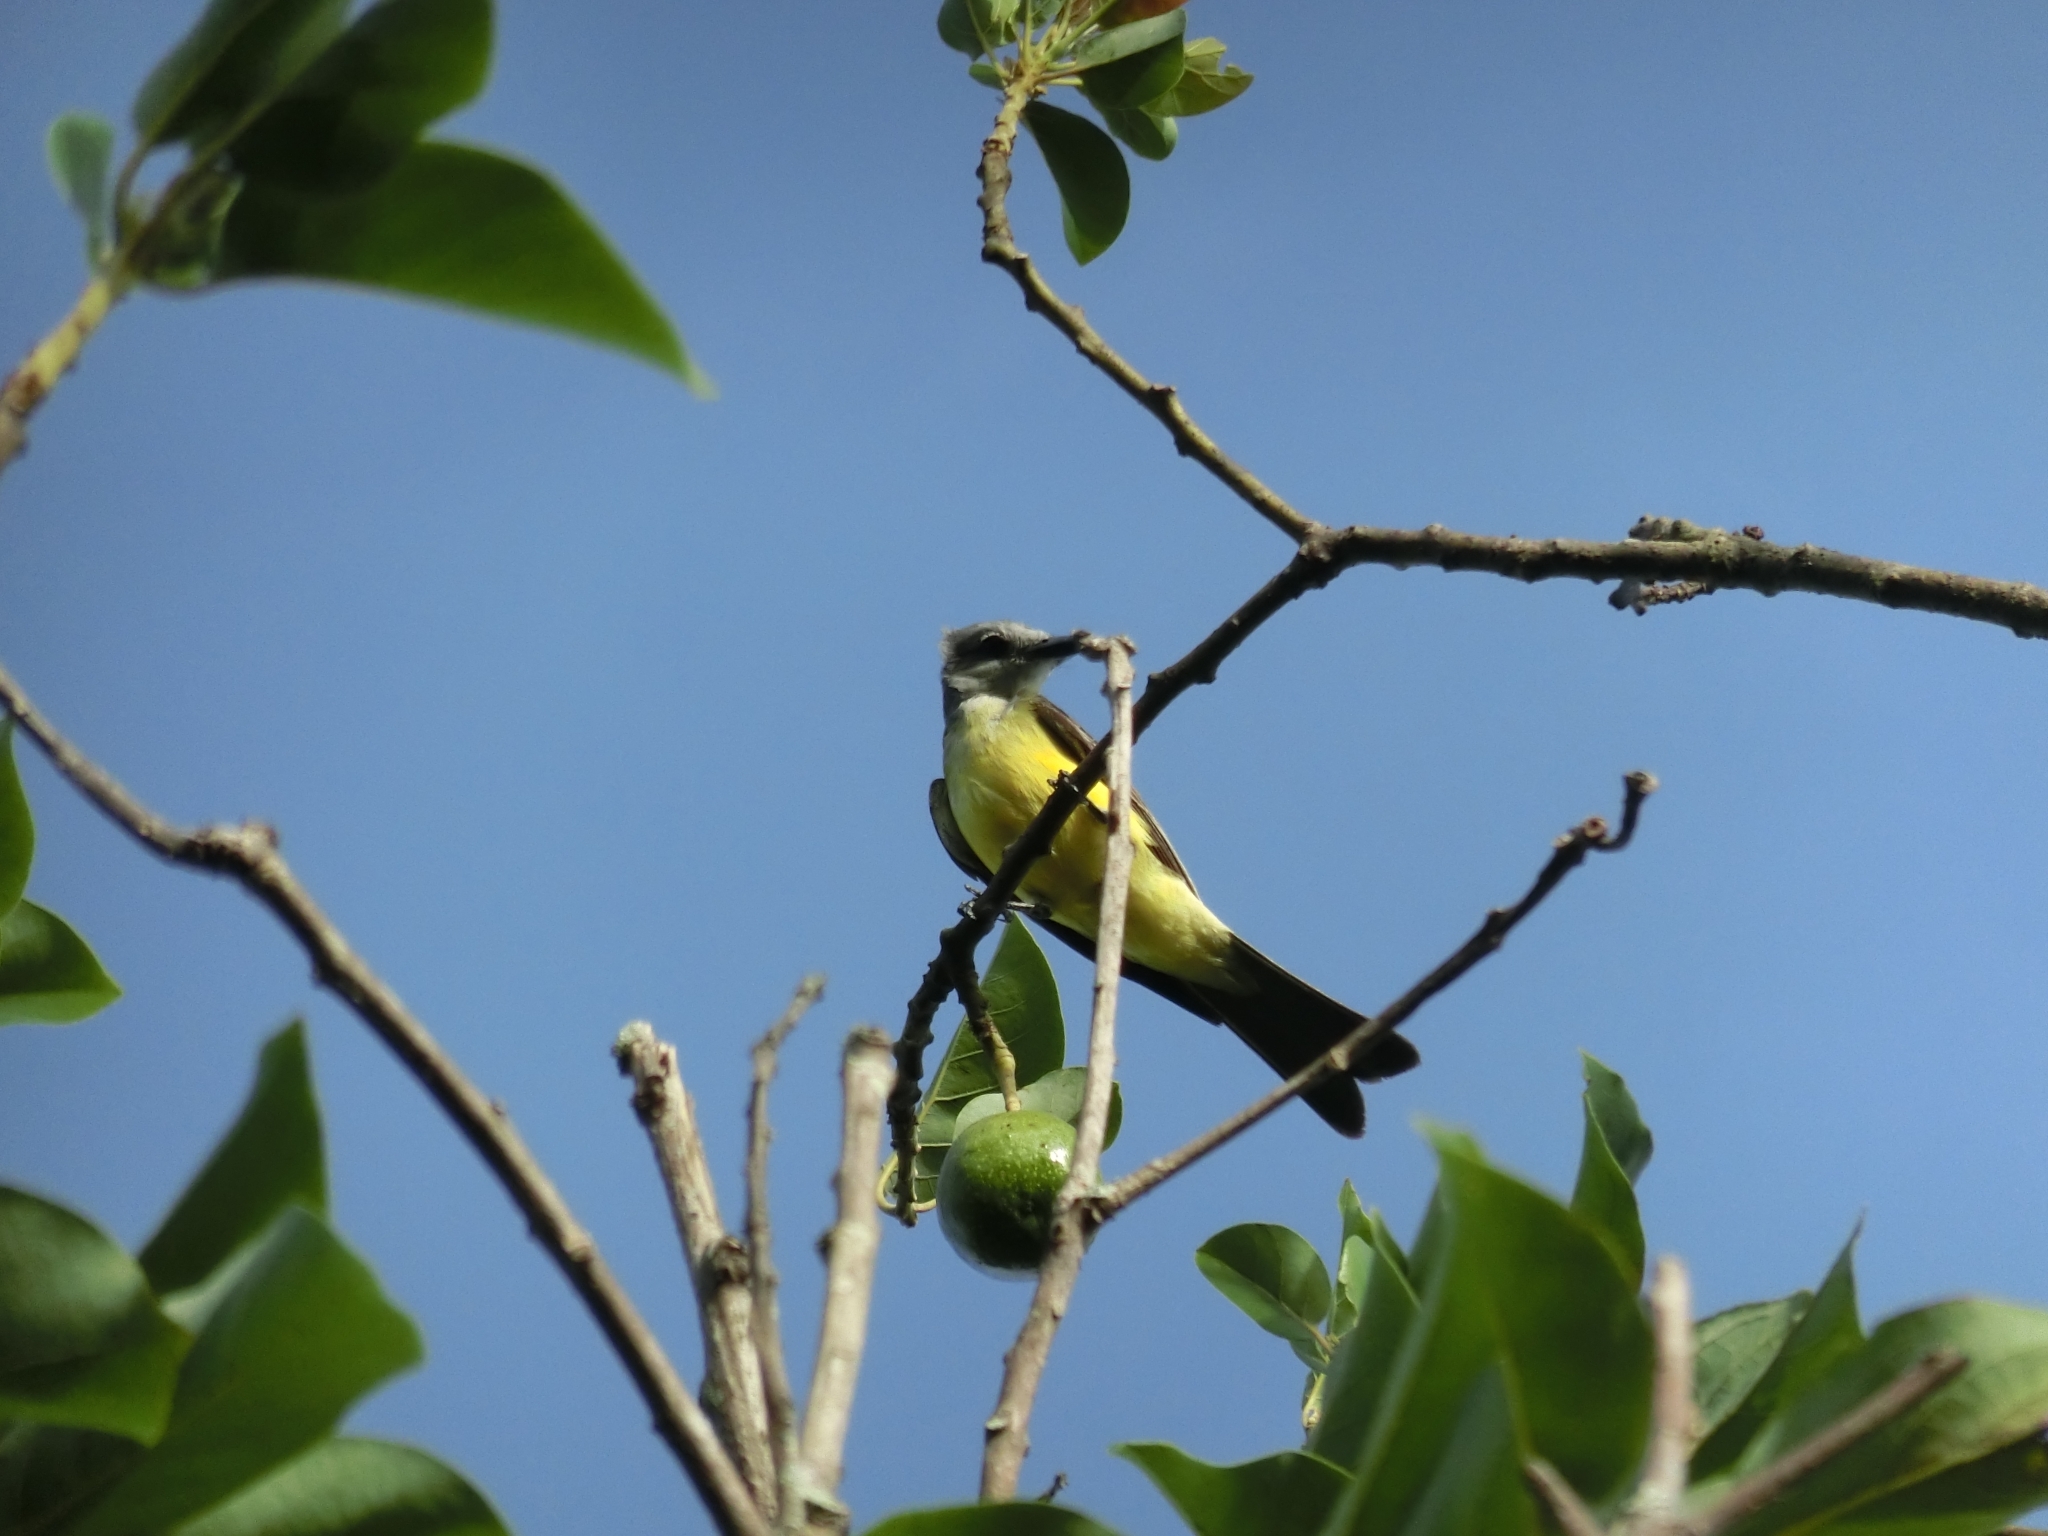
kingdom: Animalia
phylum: Chordata
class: Aves
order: Passeriformes
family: Tyrannidae
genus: Tyrannus
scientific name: Tyrannus melancholicus
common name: Tropical kingbird
